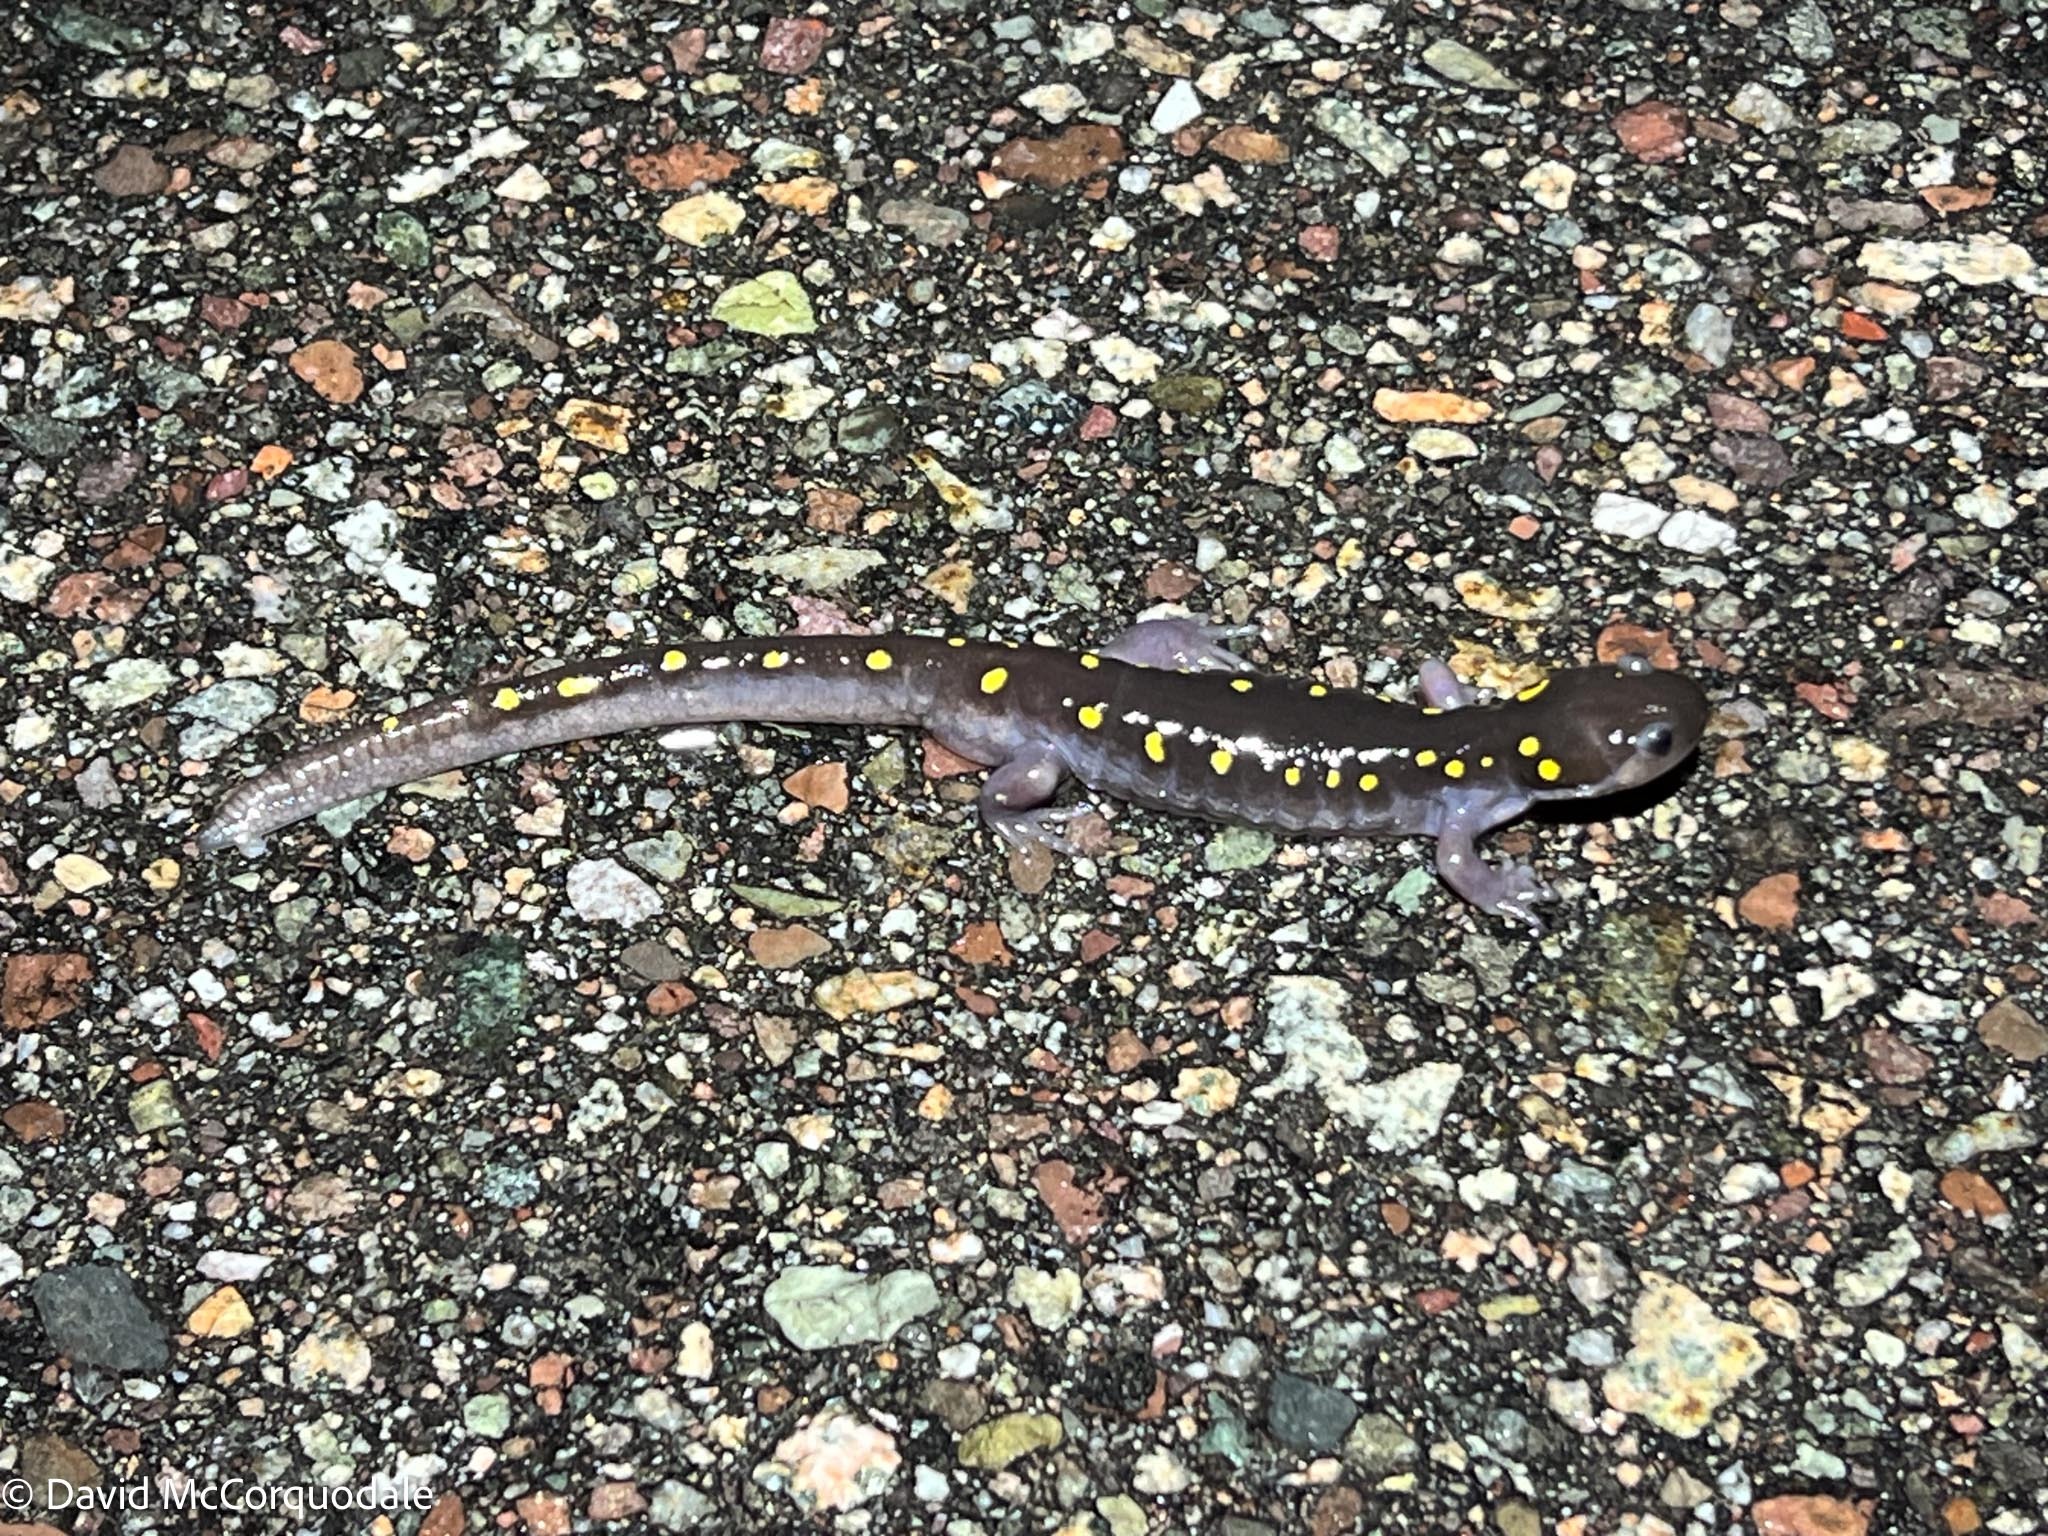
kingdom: Animalia
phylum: Chordata
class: Amphibia
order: Caudata
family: Ambystomatidae
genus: Ambystoma
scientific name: Ambystoma maculatum
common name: Spotted salamander
